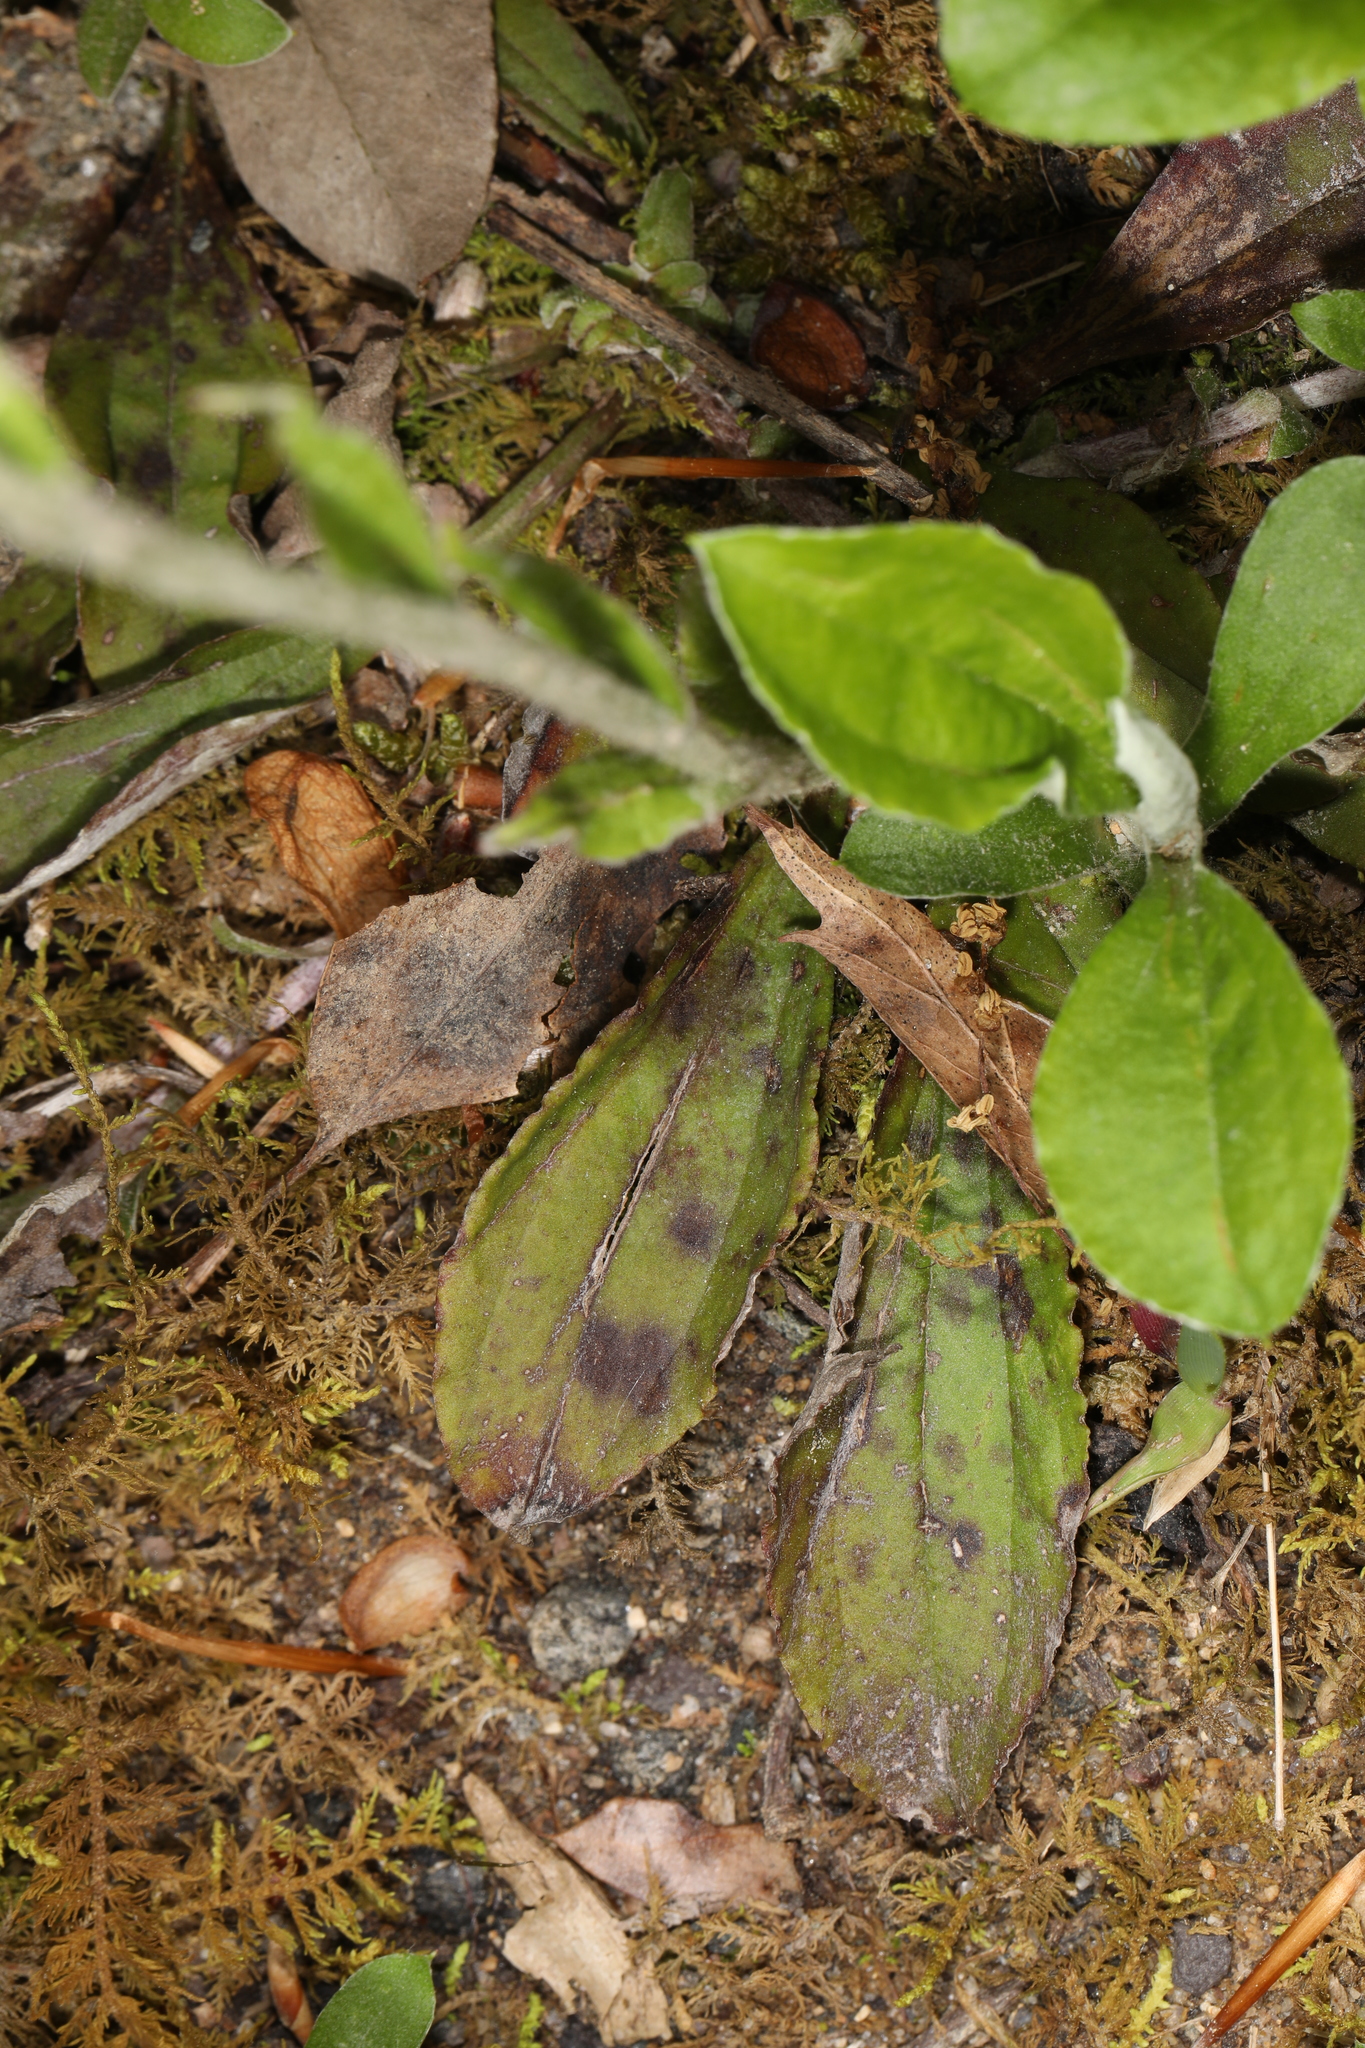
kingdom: Plantae
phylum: Tracheophyta
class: Magnoliopsida
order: Asterales
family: Asteraceae
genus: Antennaria
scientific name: Antennaria plantaginifolia
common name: Plantain-leaved pussytoes
